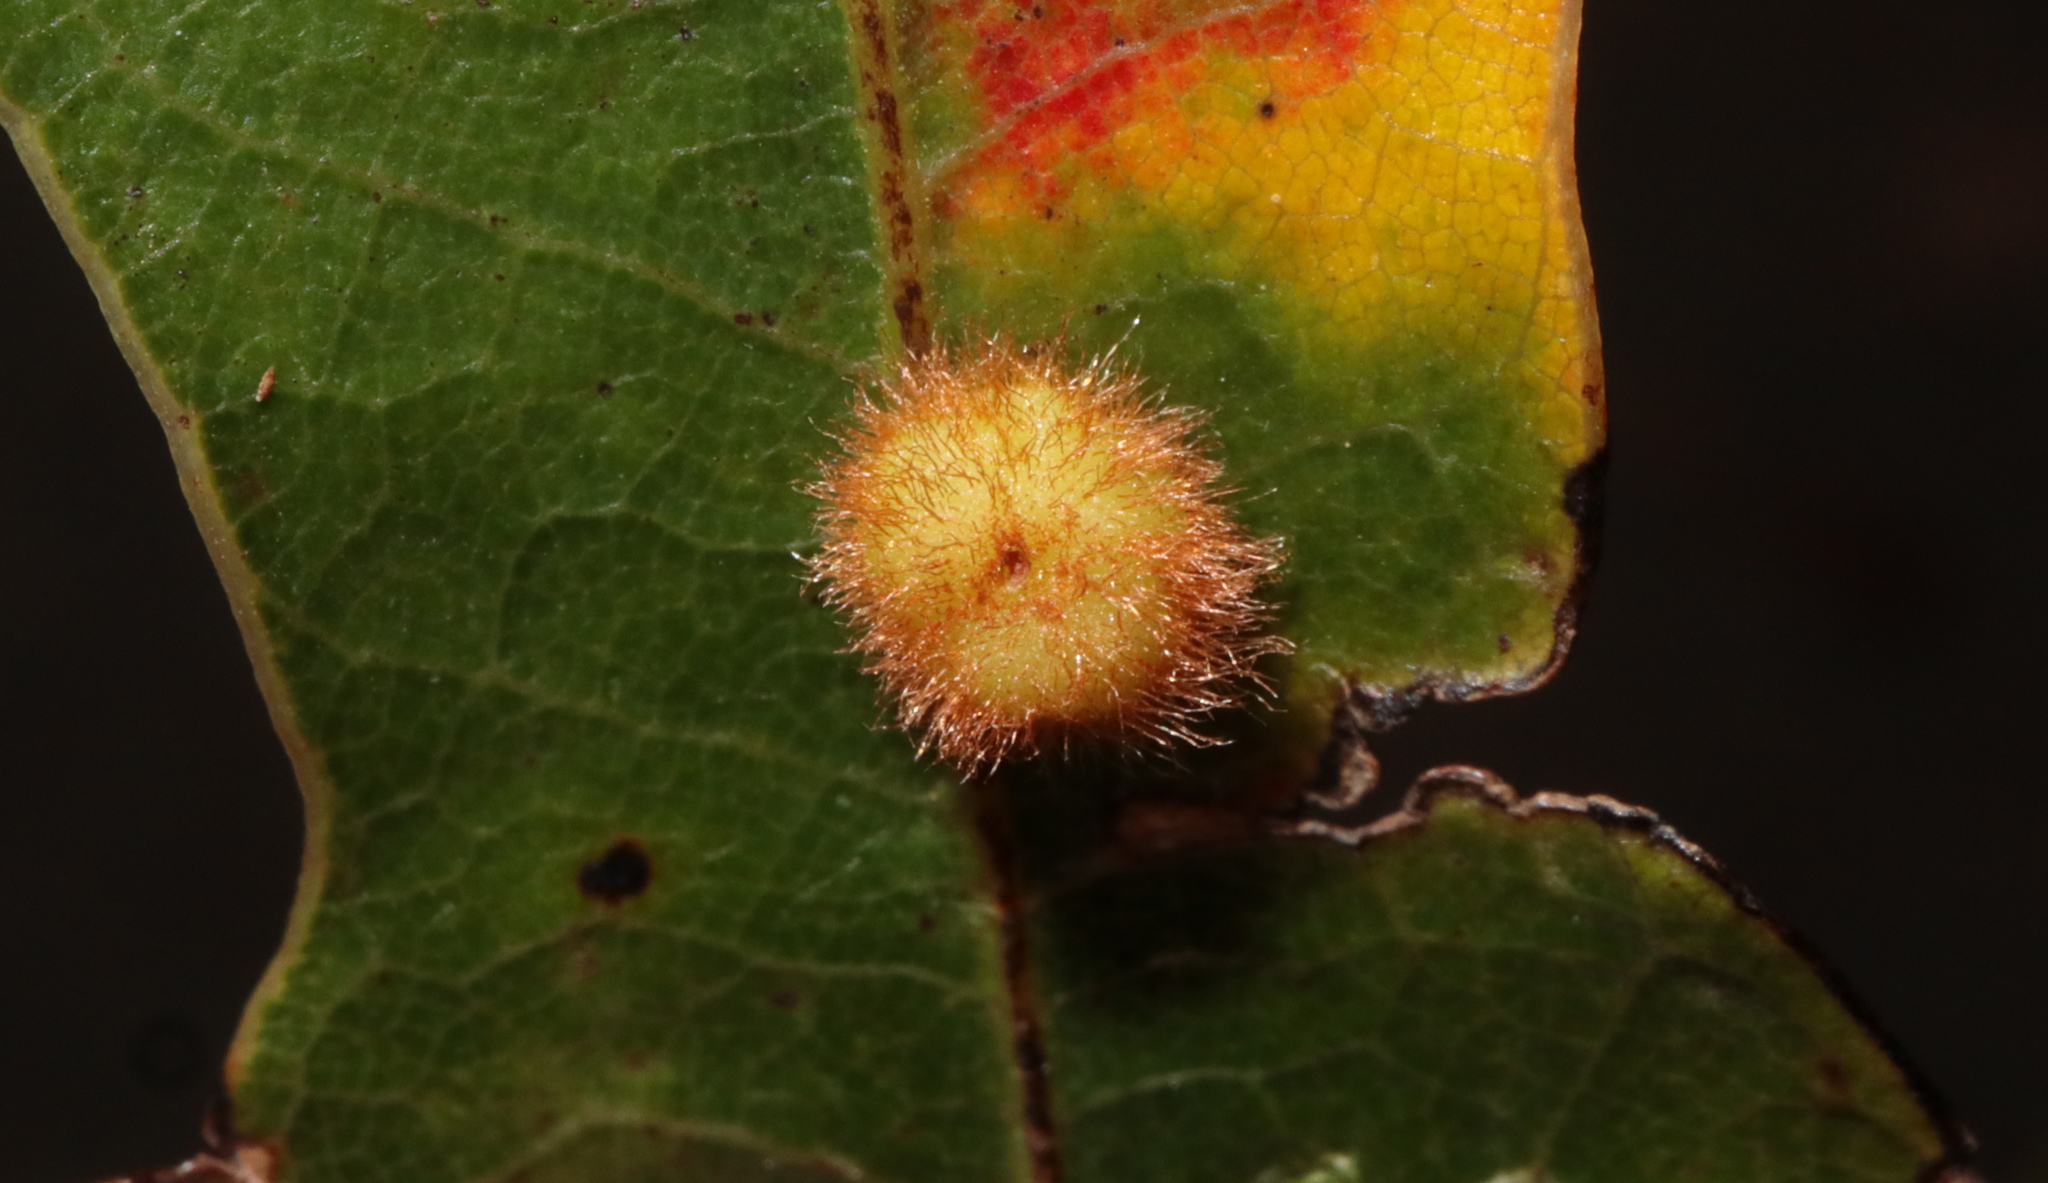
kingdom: Animalia
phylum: Arthropoda
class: Insecta
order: Hymenoptera
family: Cynipidae
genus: Callirhytis
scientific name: Callirhytis
